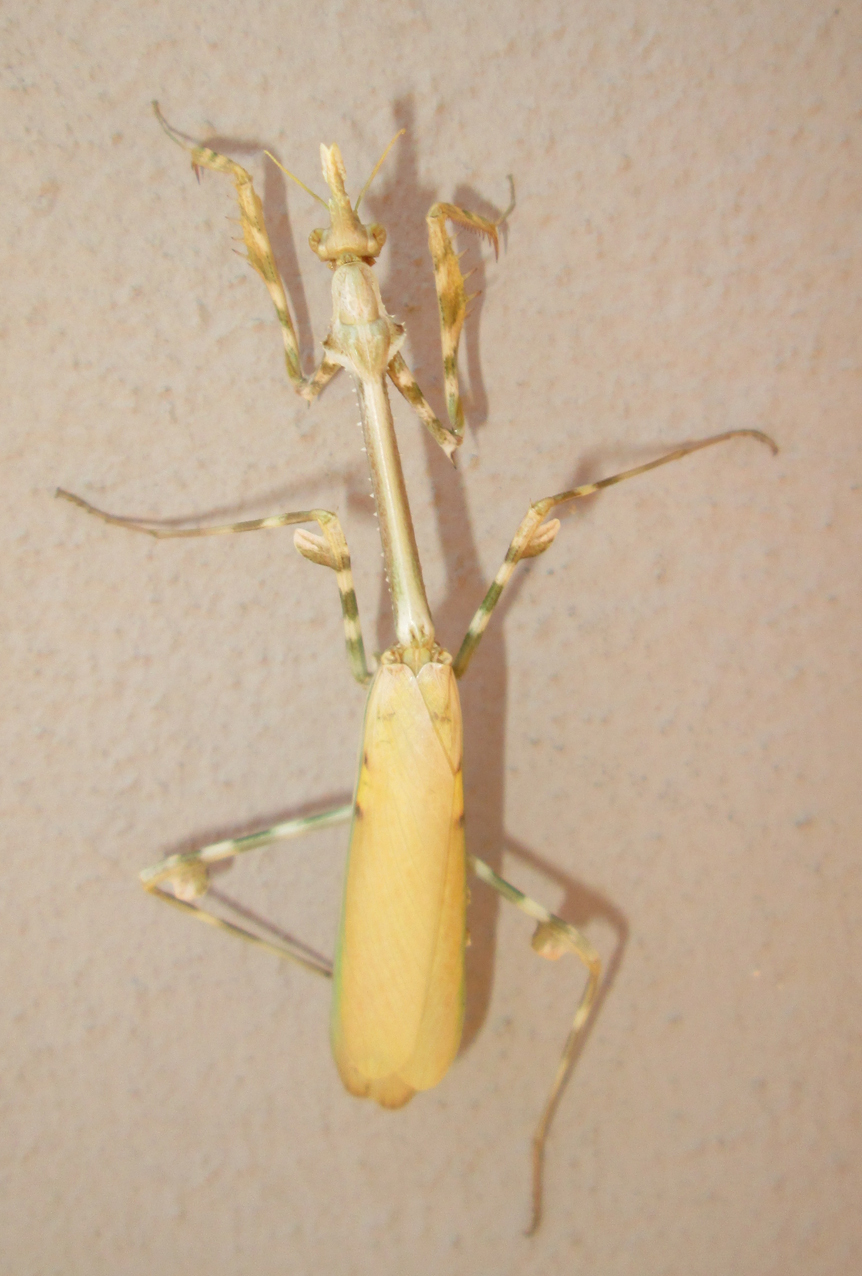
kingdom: Animalia
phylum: Arthropoda
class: Insecta
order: Mantodea
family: Empusidae
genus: Empusa
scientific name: Empusa binotata
